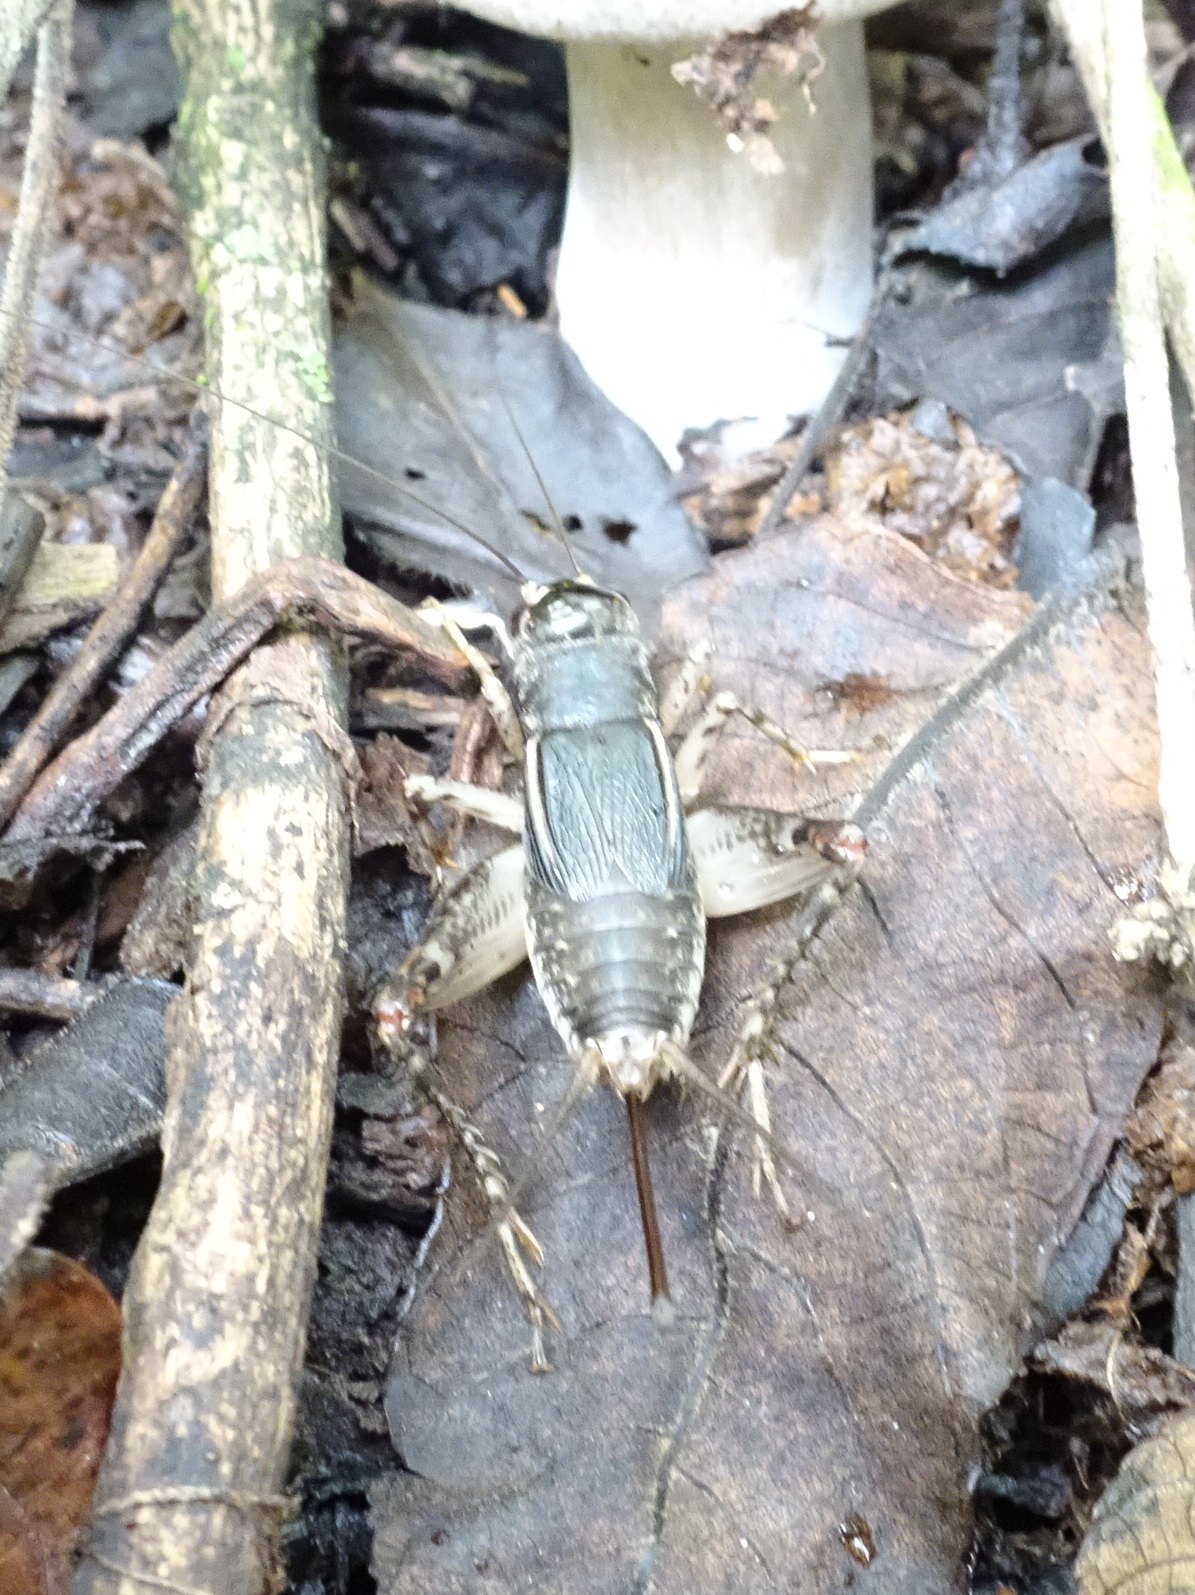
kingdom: Animalia
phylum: Arthropoda
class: Insecta
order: Orthoptera
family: Gryllidae
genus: Velarifictorus
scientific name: Velarifictorus micado
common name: Japanese burrowing cricket
